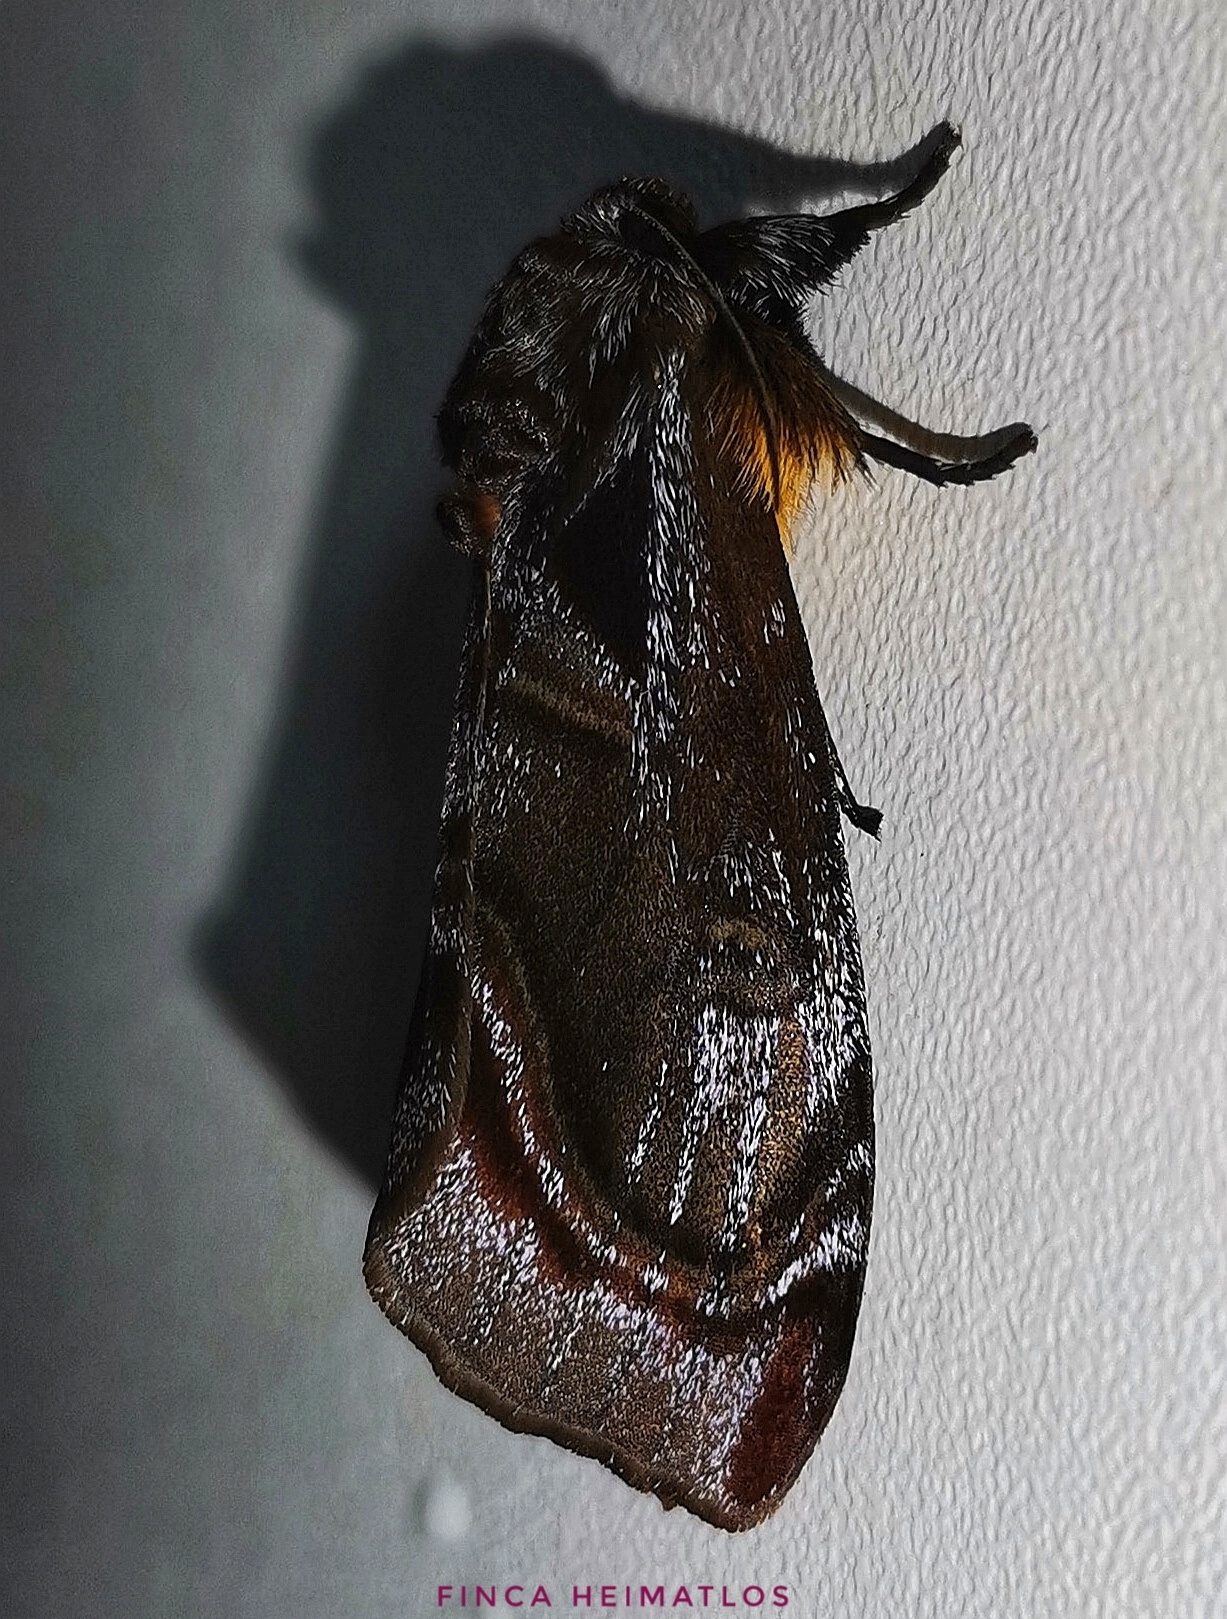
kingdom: Animalia
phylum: Arthropoda
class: Insecta
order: Lepidoptera
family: Noctuidae
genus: Darceta
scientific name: Darceta haenschi
